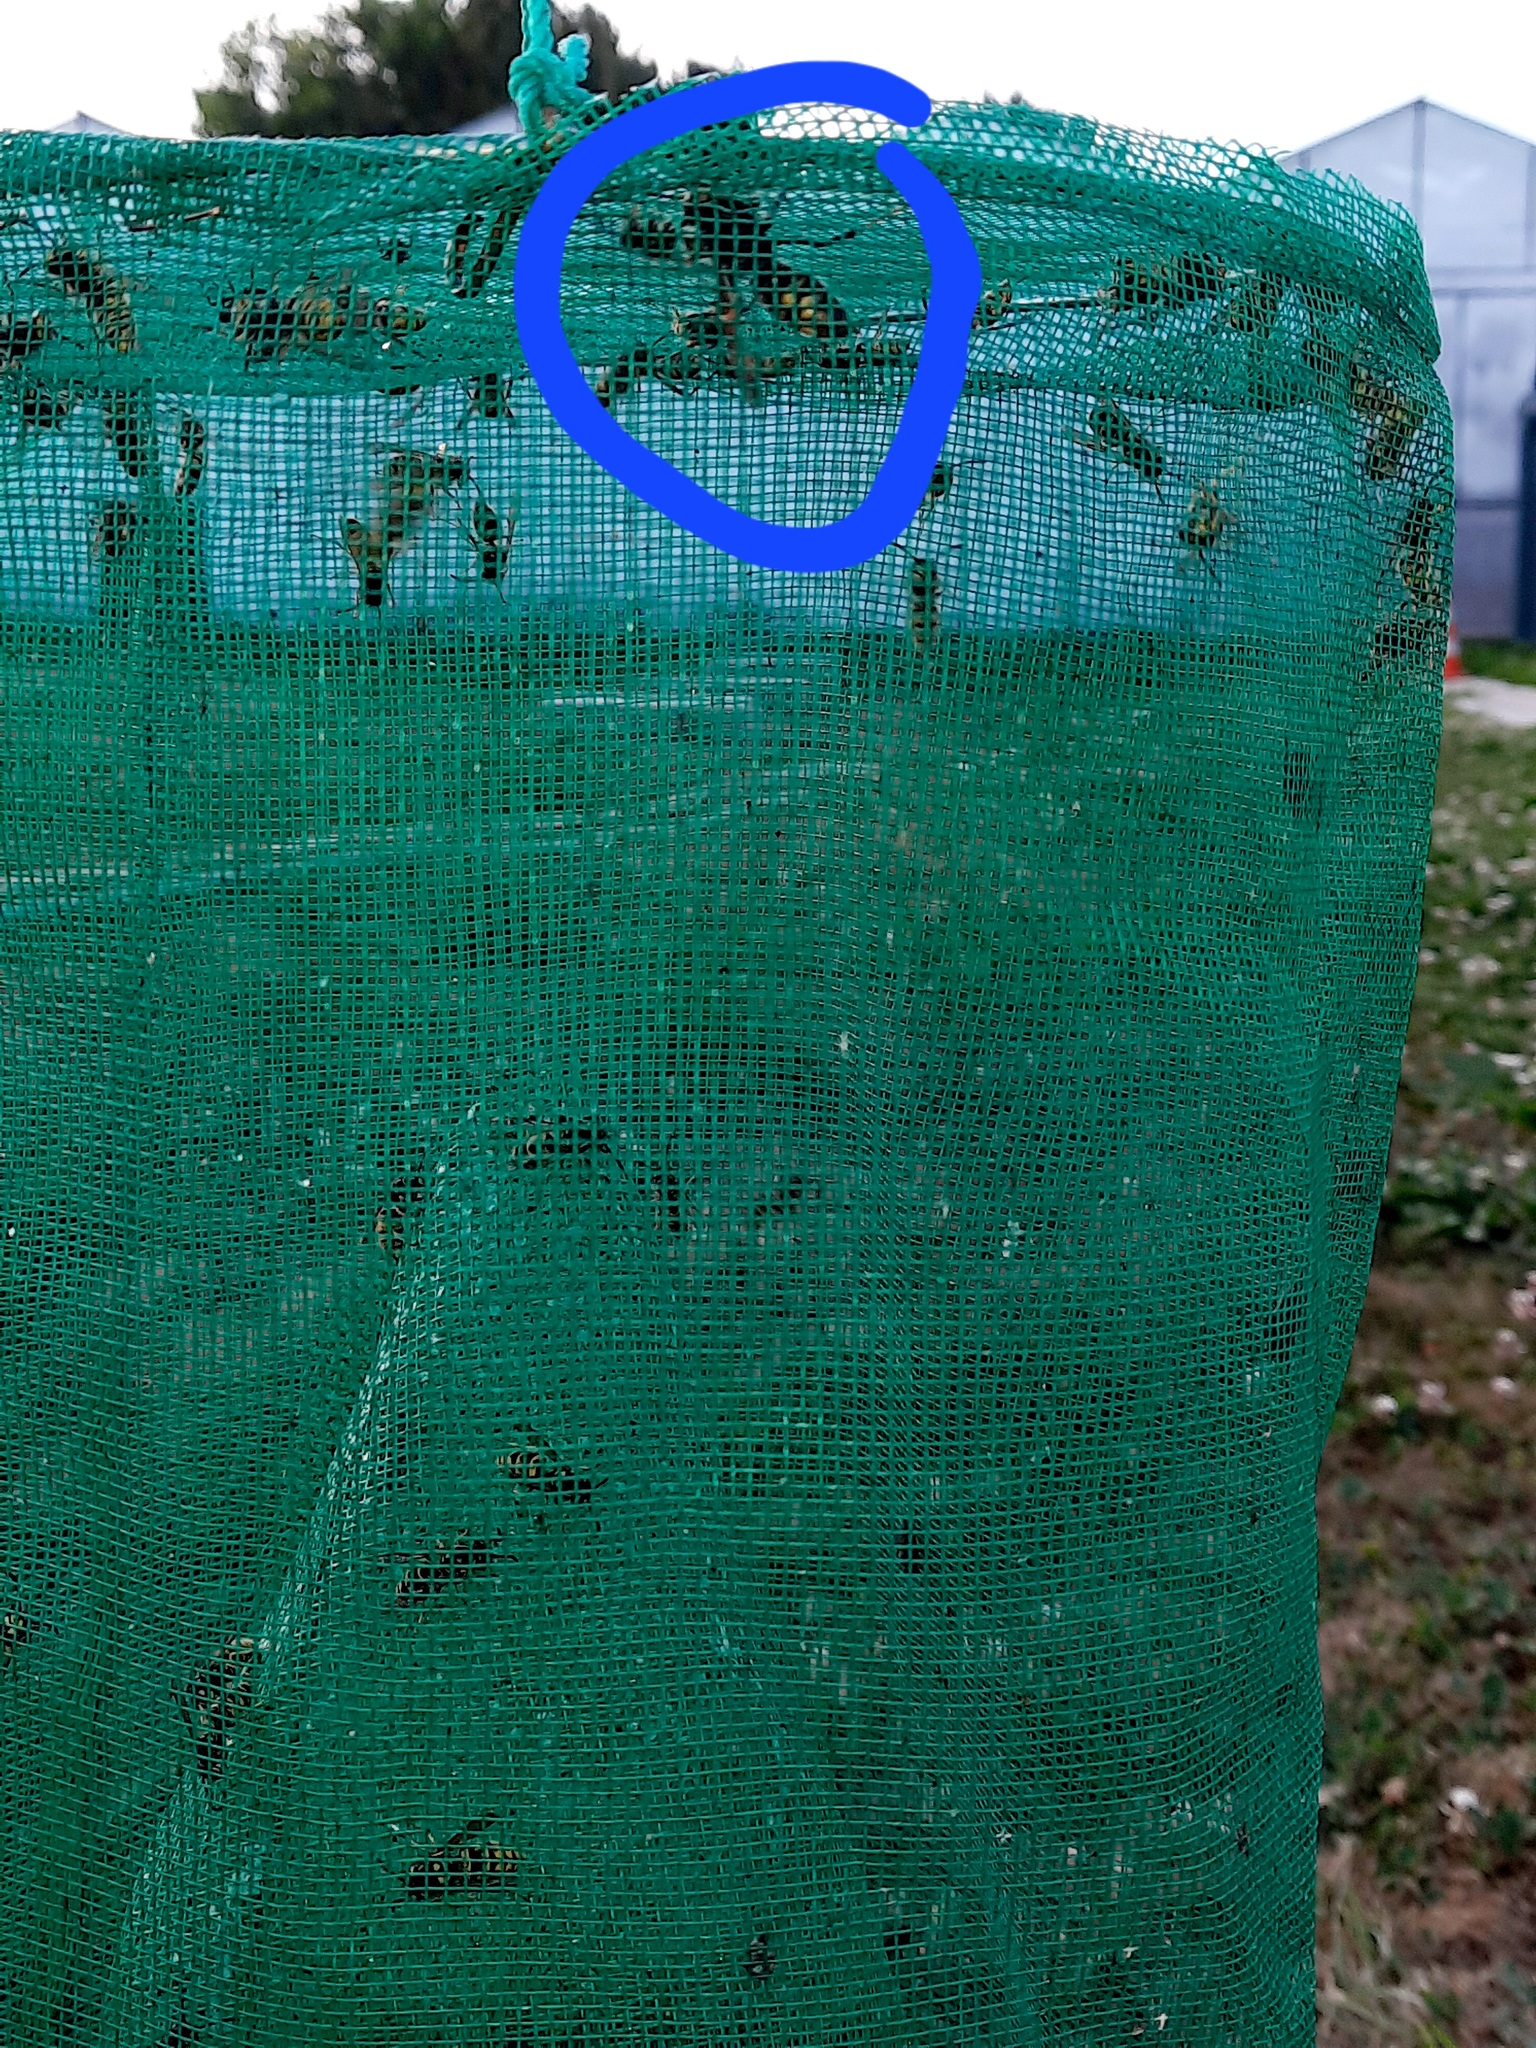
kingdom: Animalia
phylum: Arthropoda
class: Insecta
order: Hymenoptera
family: Vespidae
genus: Vespa
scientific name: Vespa velutina
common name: Asian hornet
